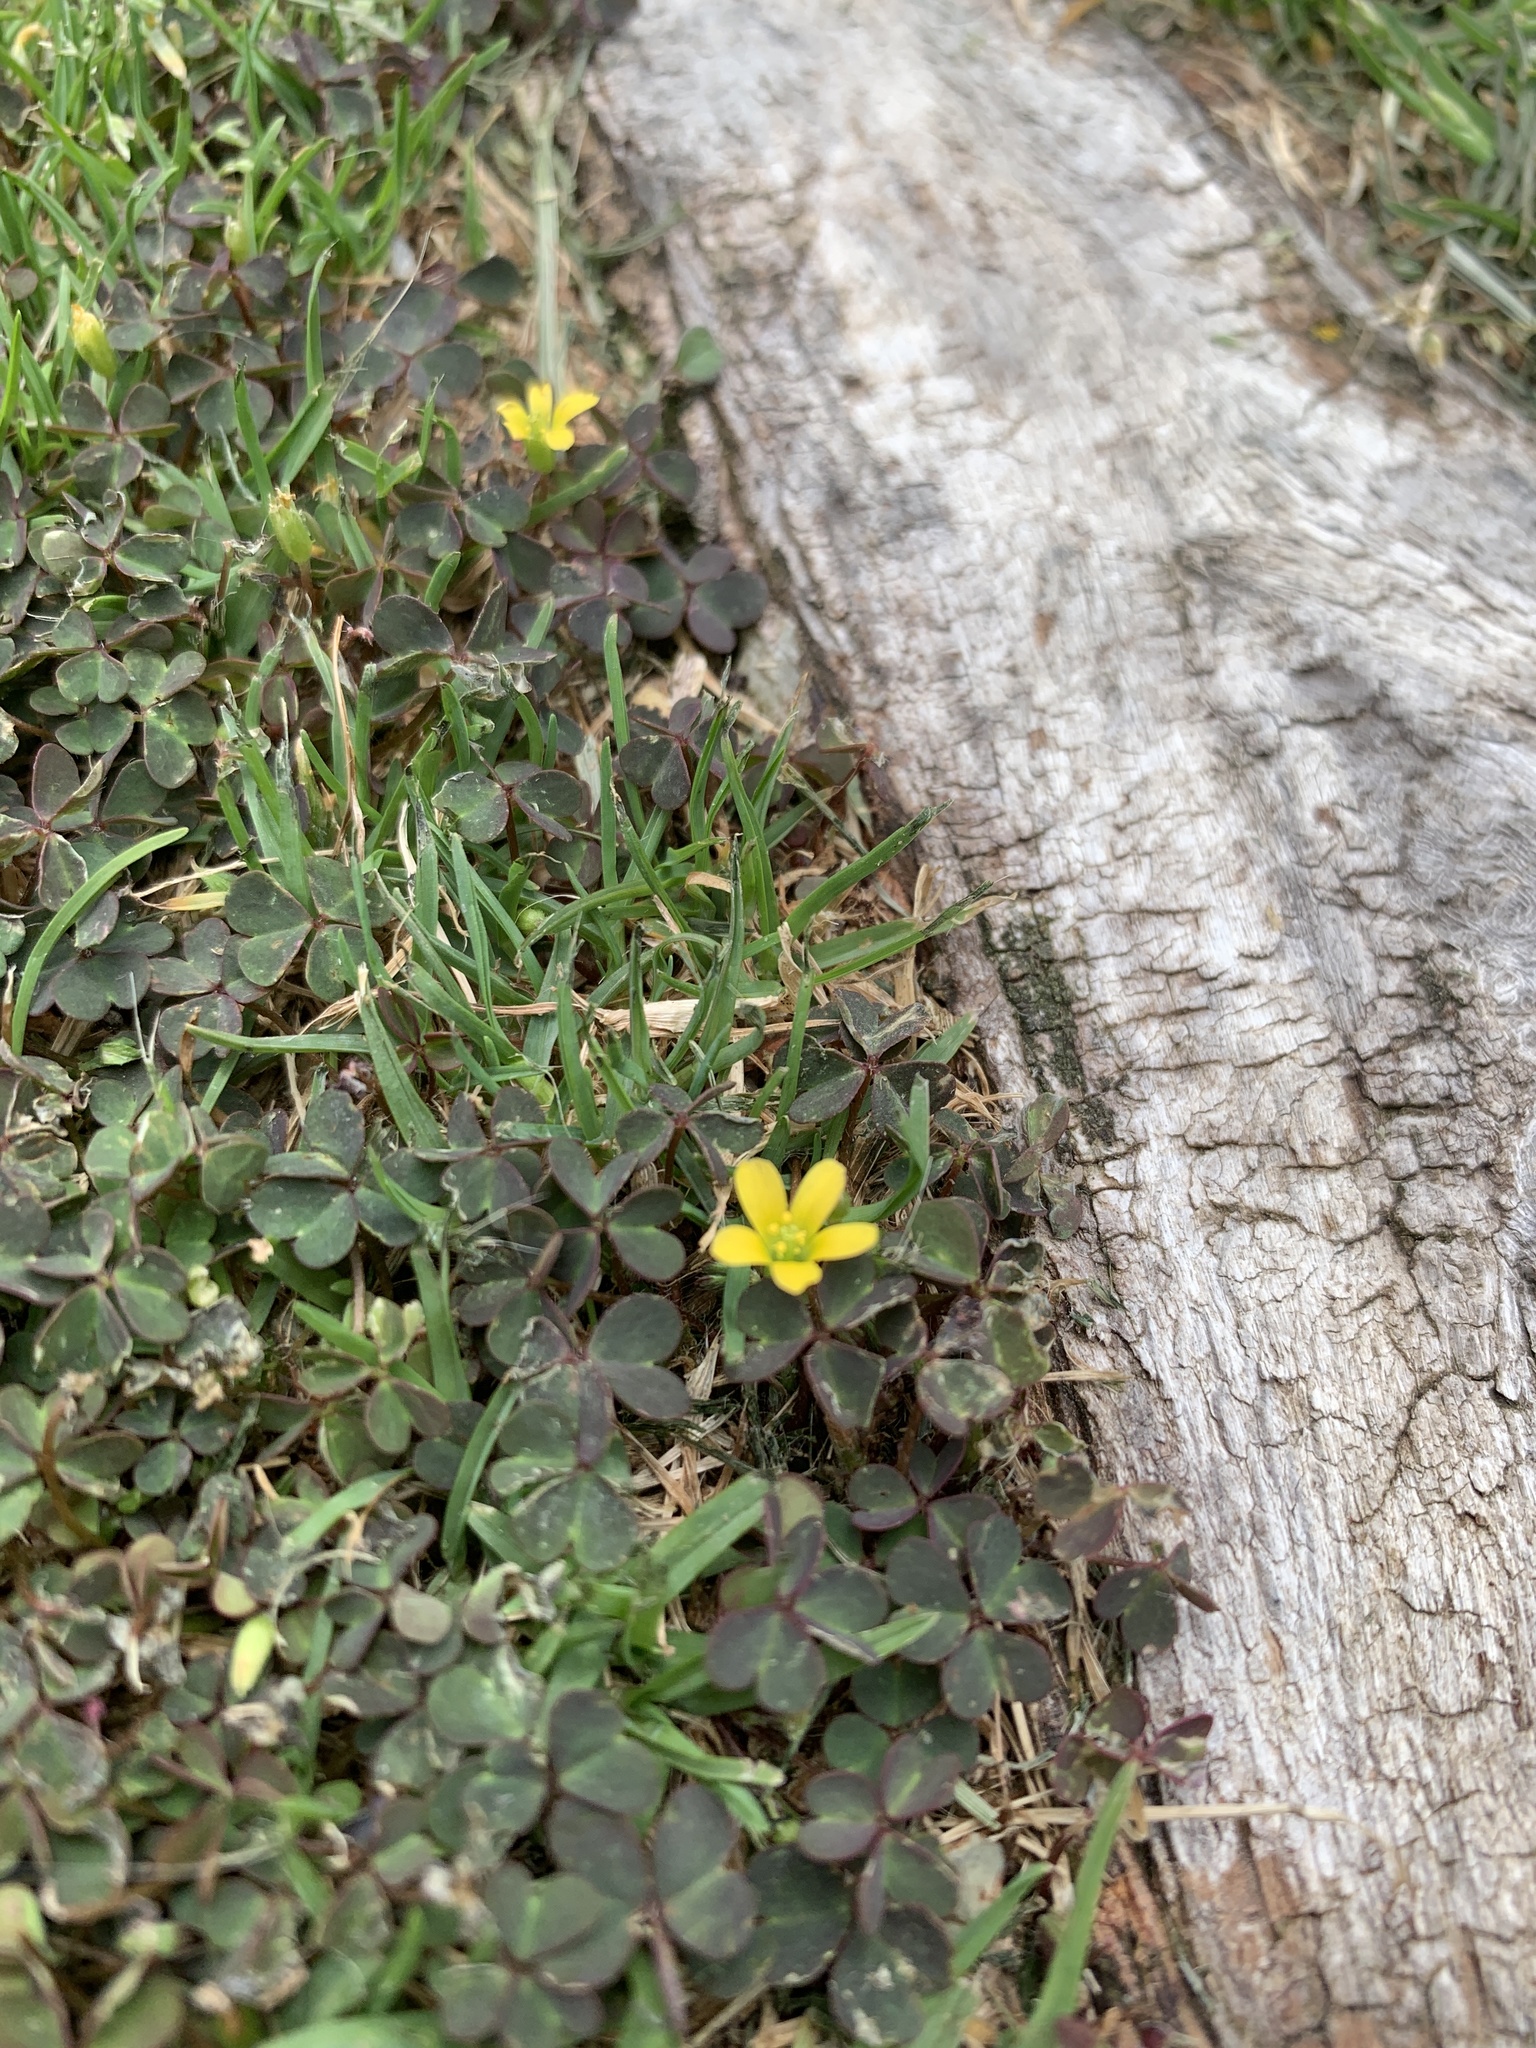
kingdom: Plantae
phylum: Tracheophyta
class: Magnoliopsida
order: Oxalidales
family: Oxalidaceae
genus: Oxalis
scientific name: Oxalis corniculata
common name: Procumbent yellow-sorrel
